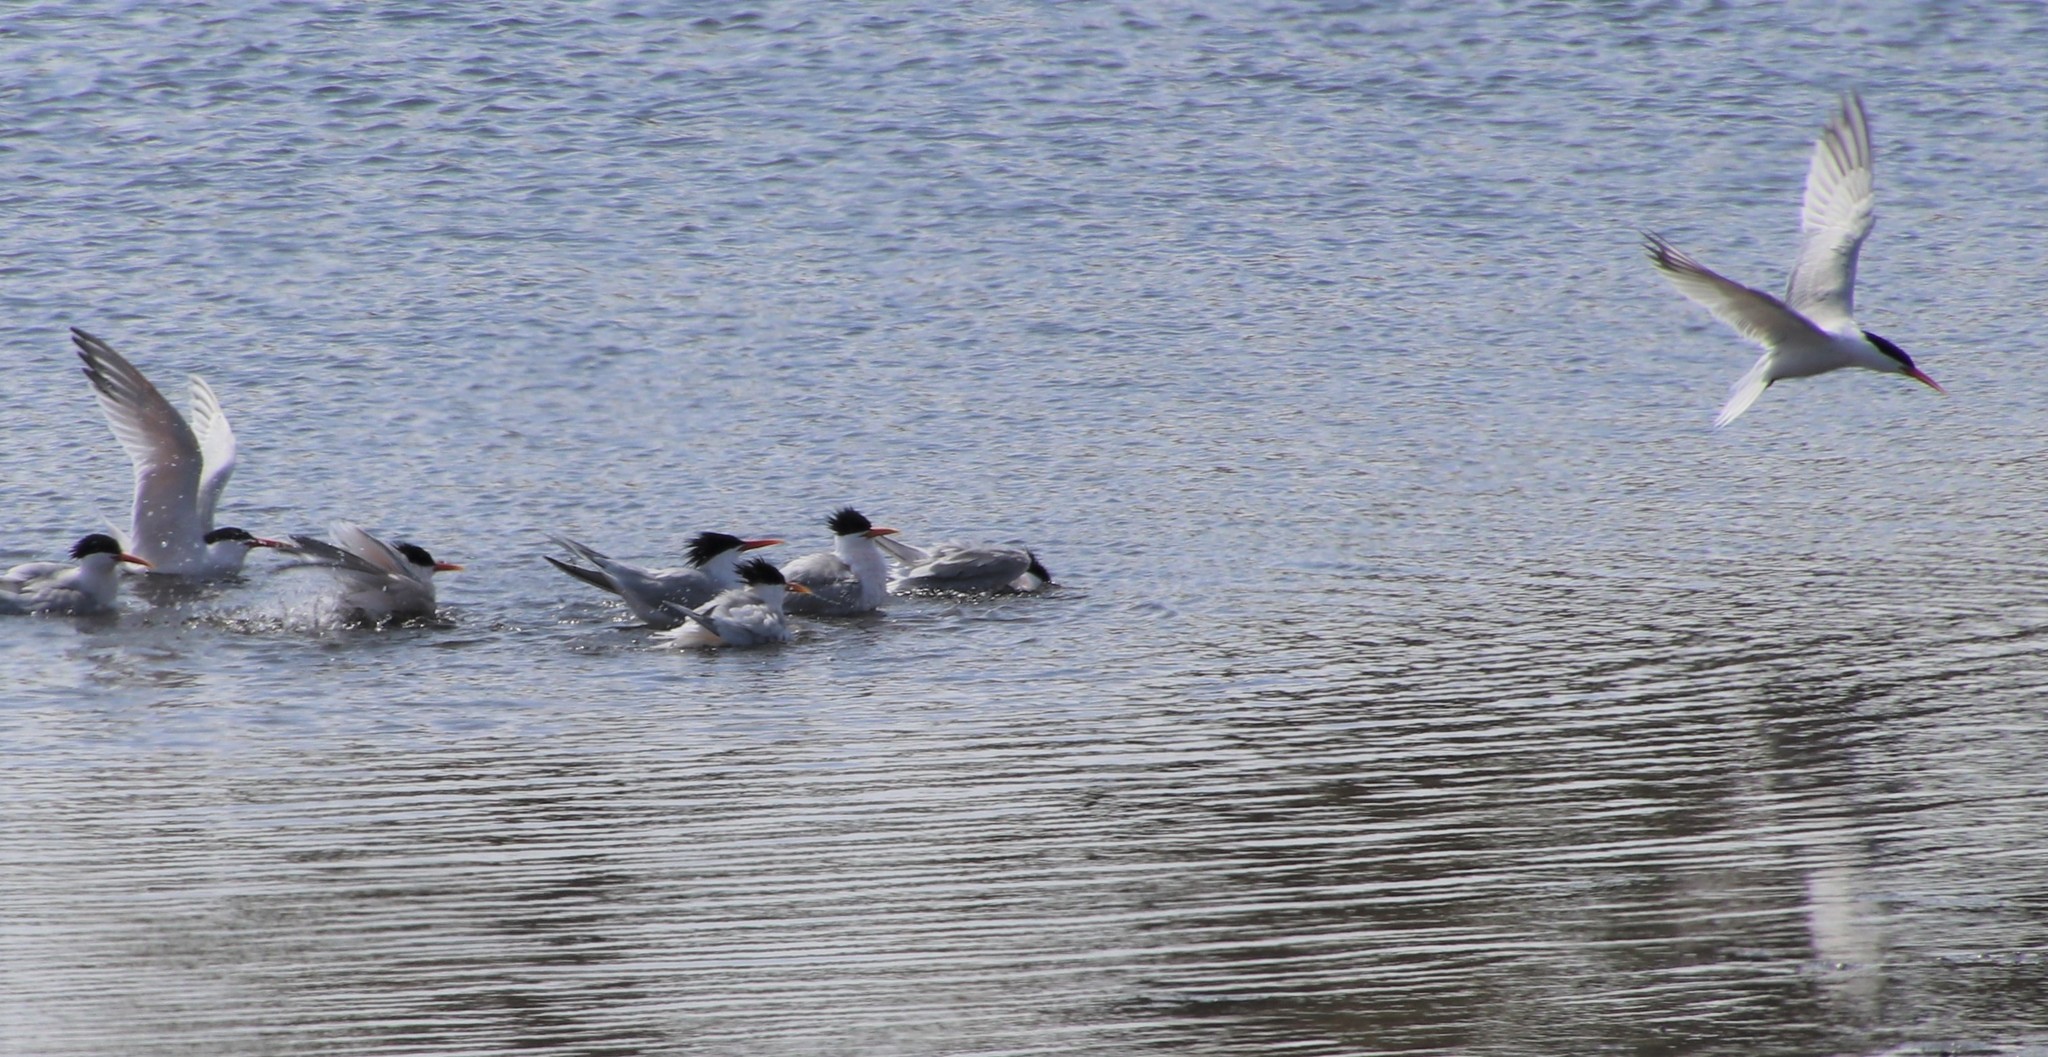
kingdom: Animalia
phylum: Chordata
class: Aves
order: Charadriiformes
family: Laridae
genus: Thalasseus
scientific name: Thalasseus elegans
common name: Elegant tern
